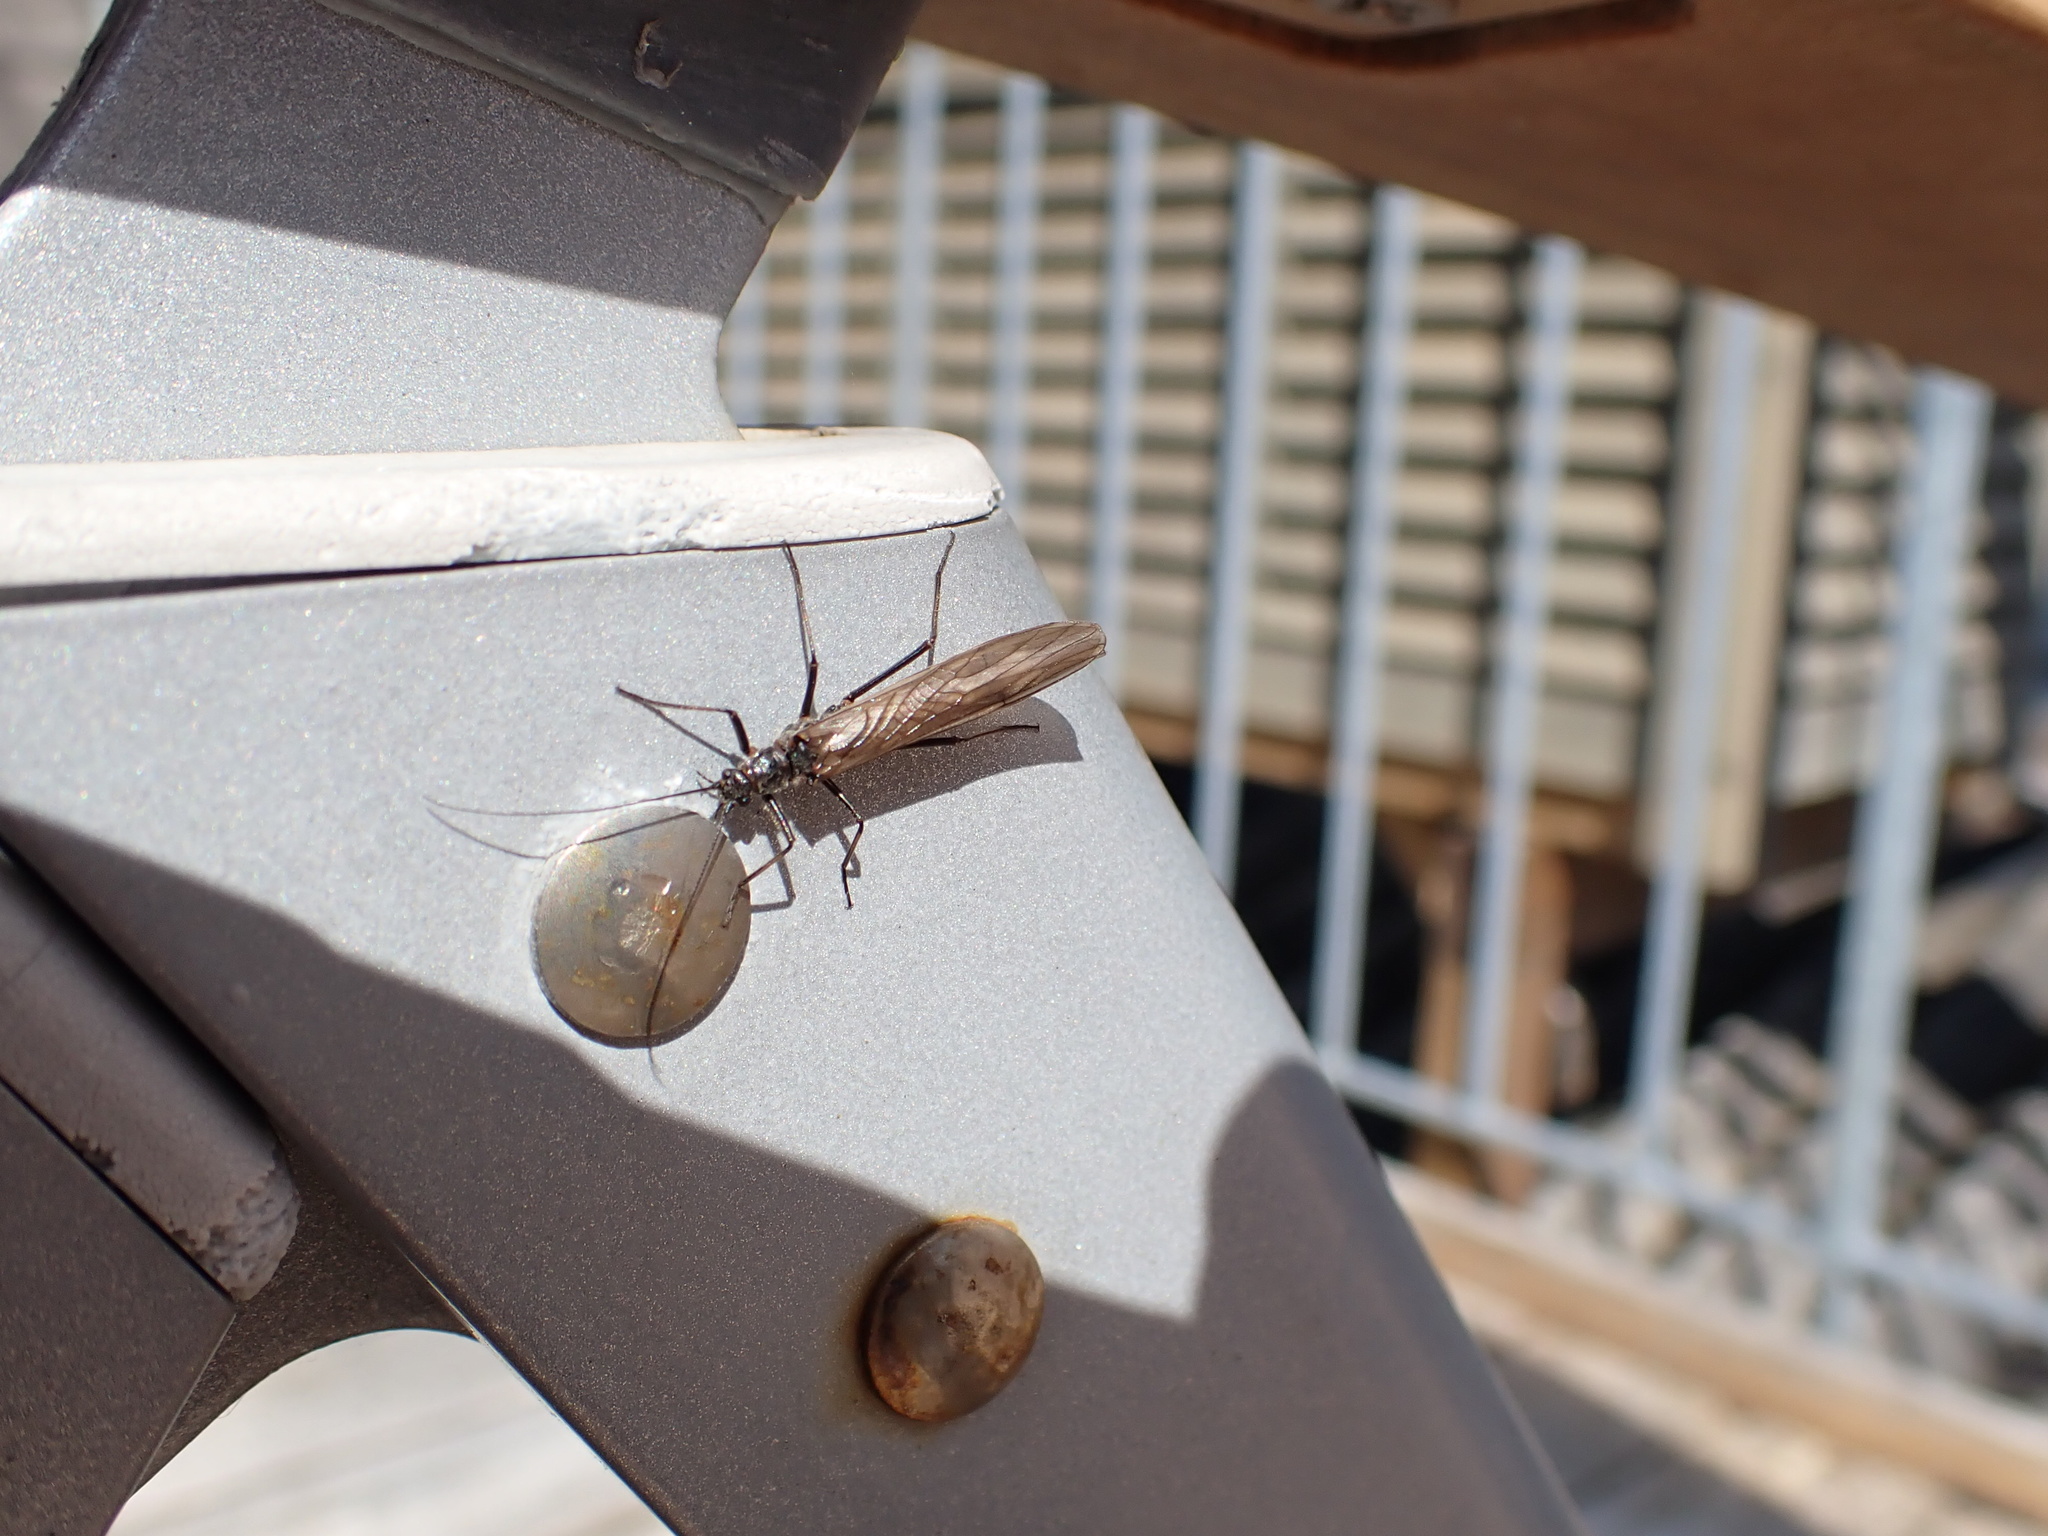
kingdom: Animalia
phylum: Arthropoda
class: Insecta
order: Plecoptera
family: Taeniopterygidae
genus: Taeniopteryx
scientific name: Taeniopteryx nebulosa
